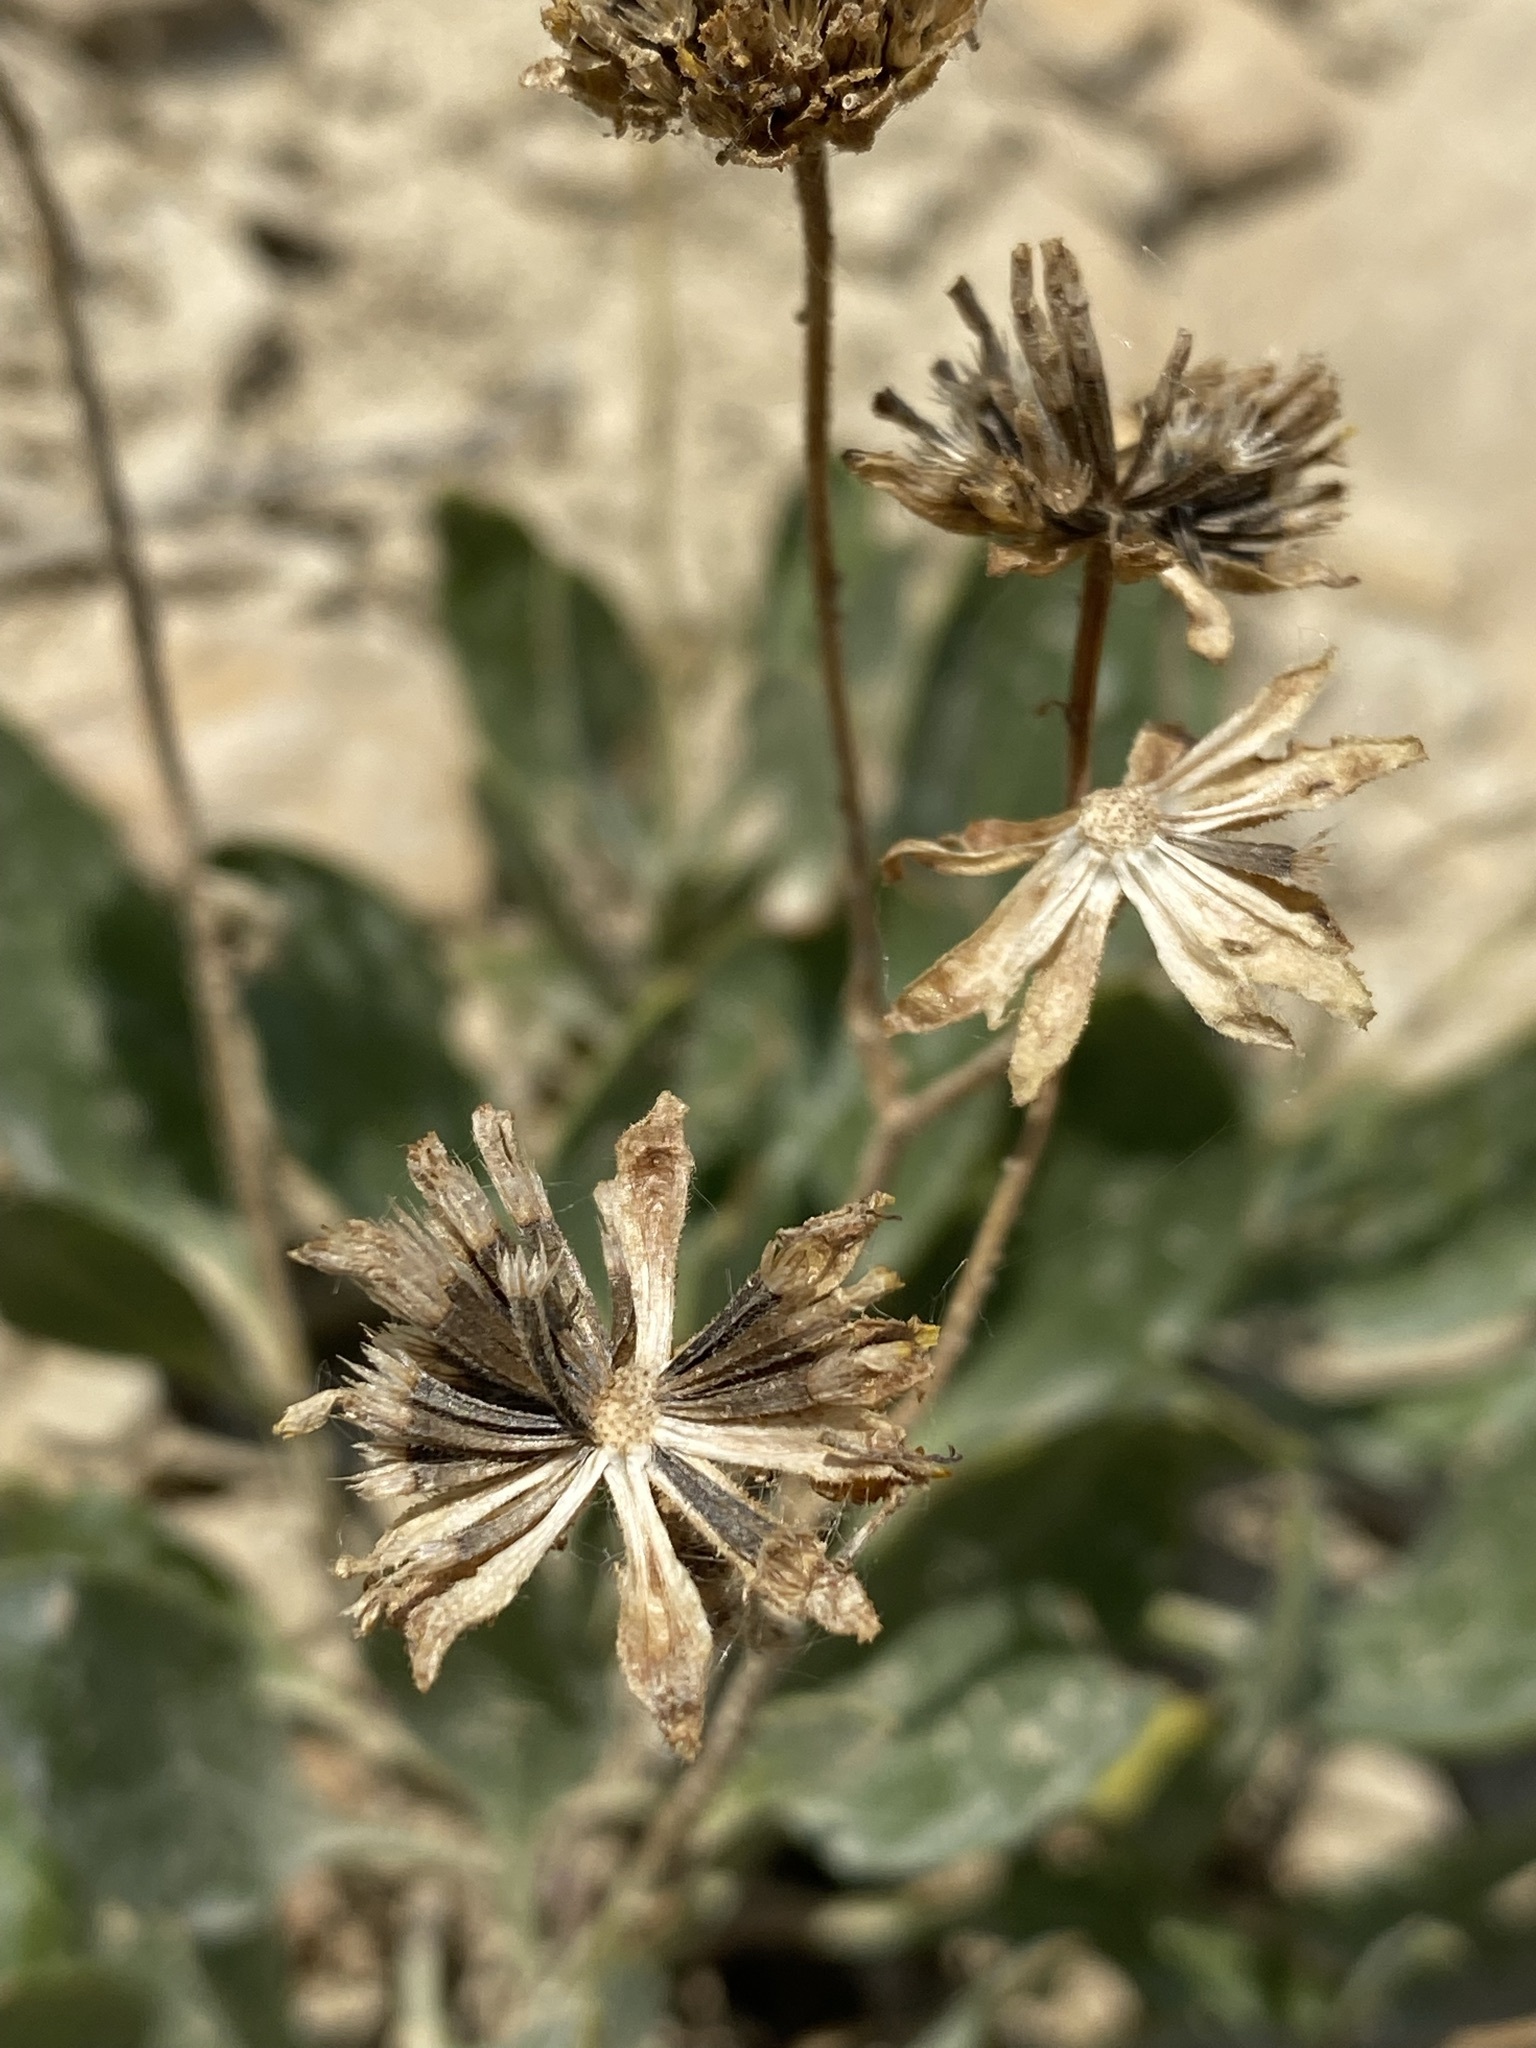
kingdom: Plantae
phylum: Tracheophyta
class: Magnoliopsida
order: Asterales
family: Asteraceae
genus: Platyschkuhria
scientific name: Platyschkuhria integrifolia
